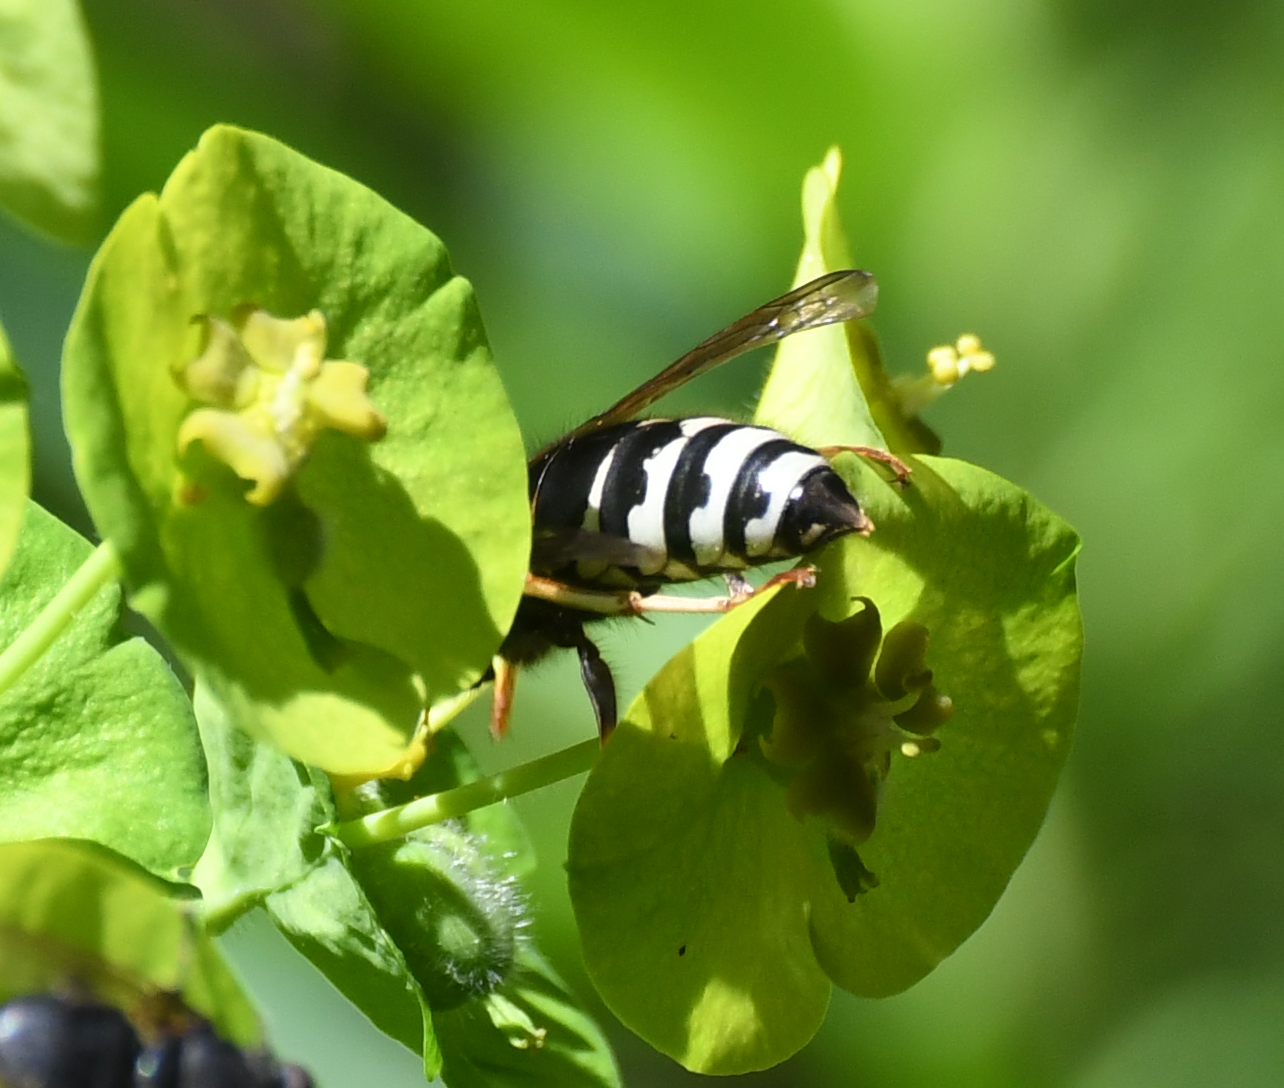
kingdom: Animalia
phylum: Arthropoda
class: Insecta
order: Hymenoptera
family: Vespidae
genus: Vespula
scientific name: Vespula consobrina
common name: Blackjacket
